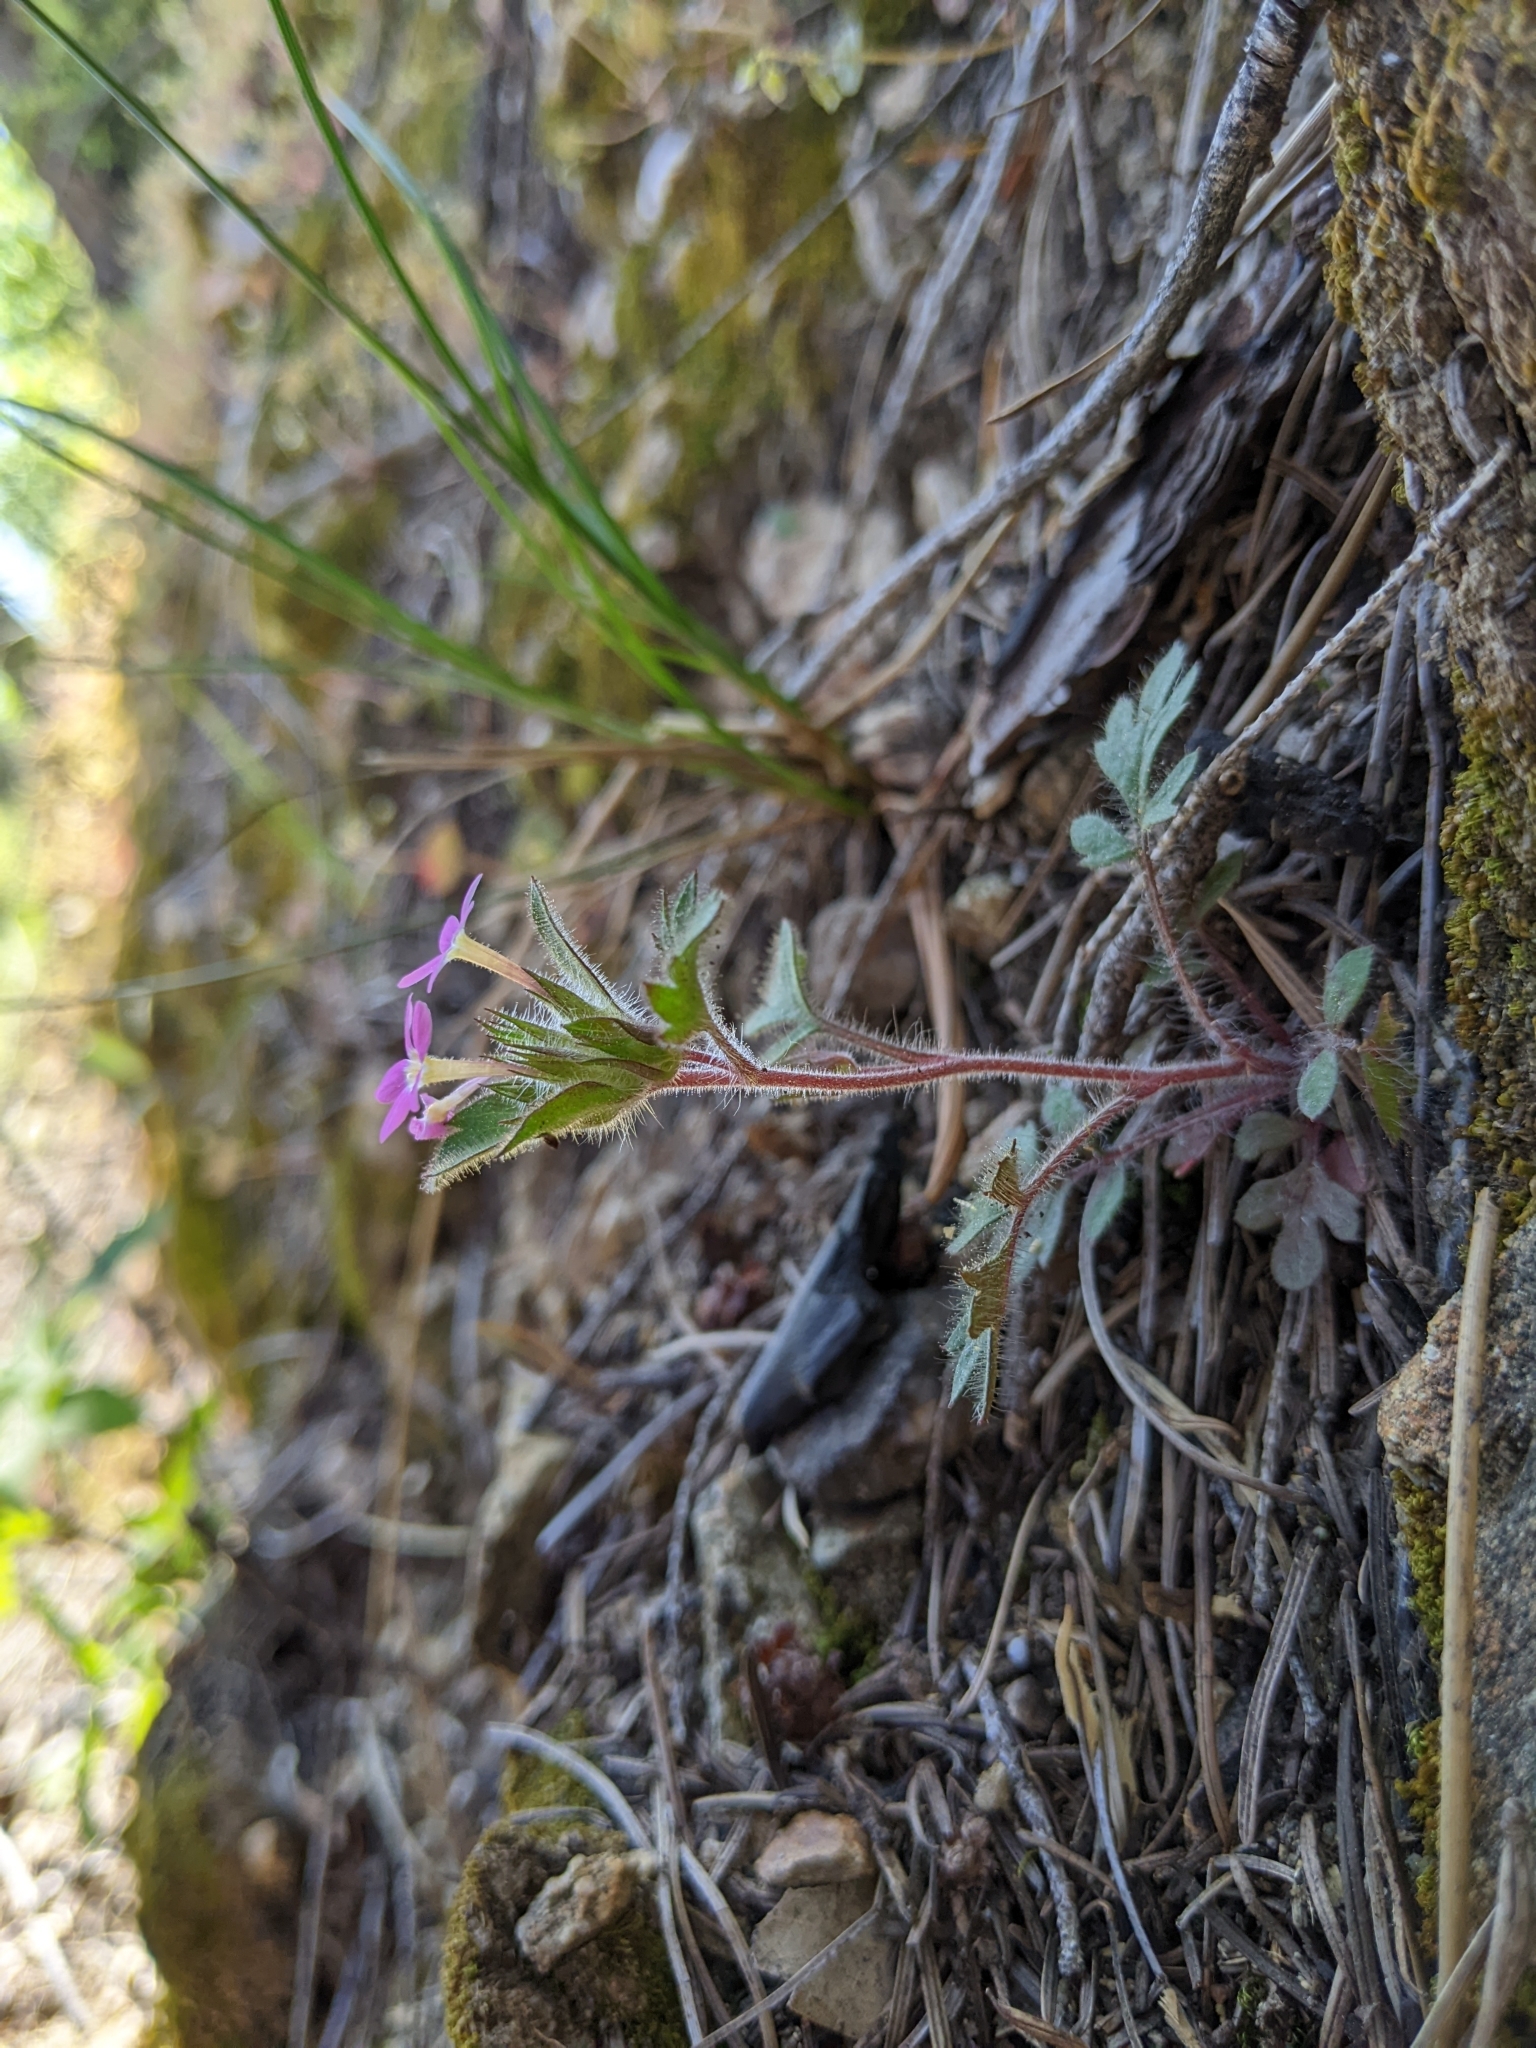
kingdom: Plantae
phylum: Tracheophyta
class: Magnoliopsida
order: Ericales
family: Polemoniaceae
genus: Collomia
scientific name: Collomia heterophylla
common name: Variable-leaved collomia
